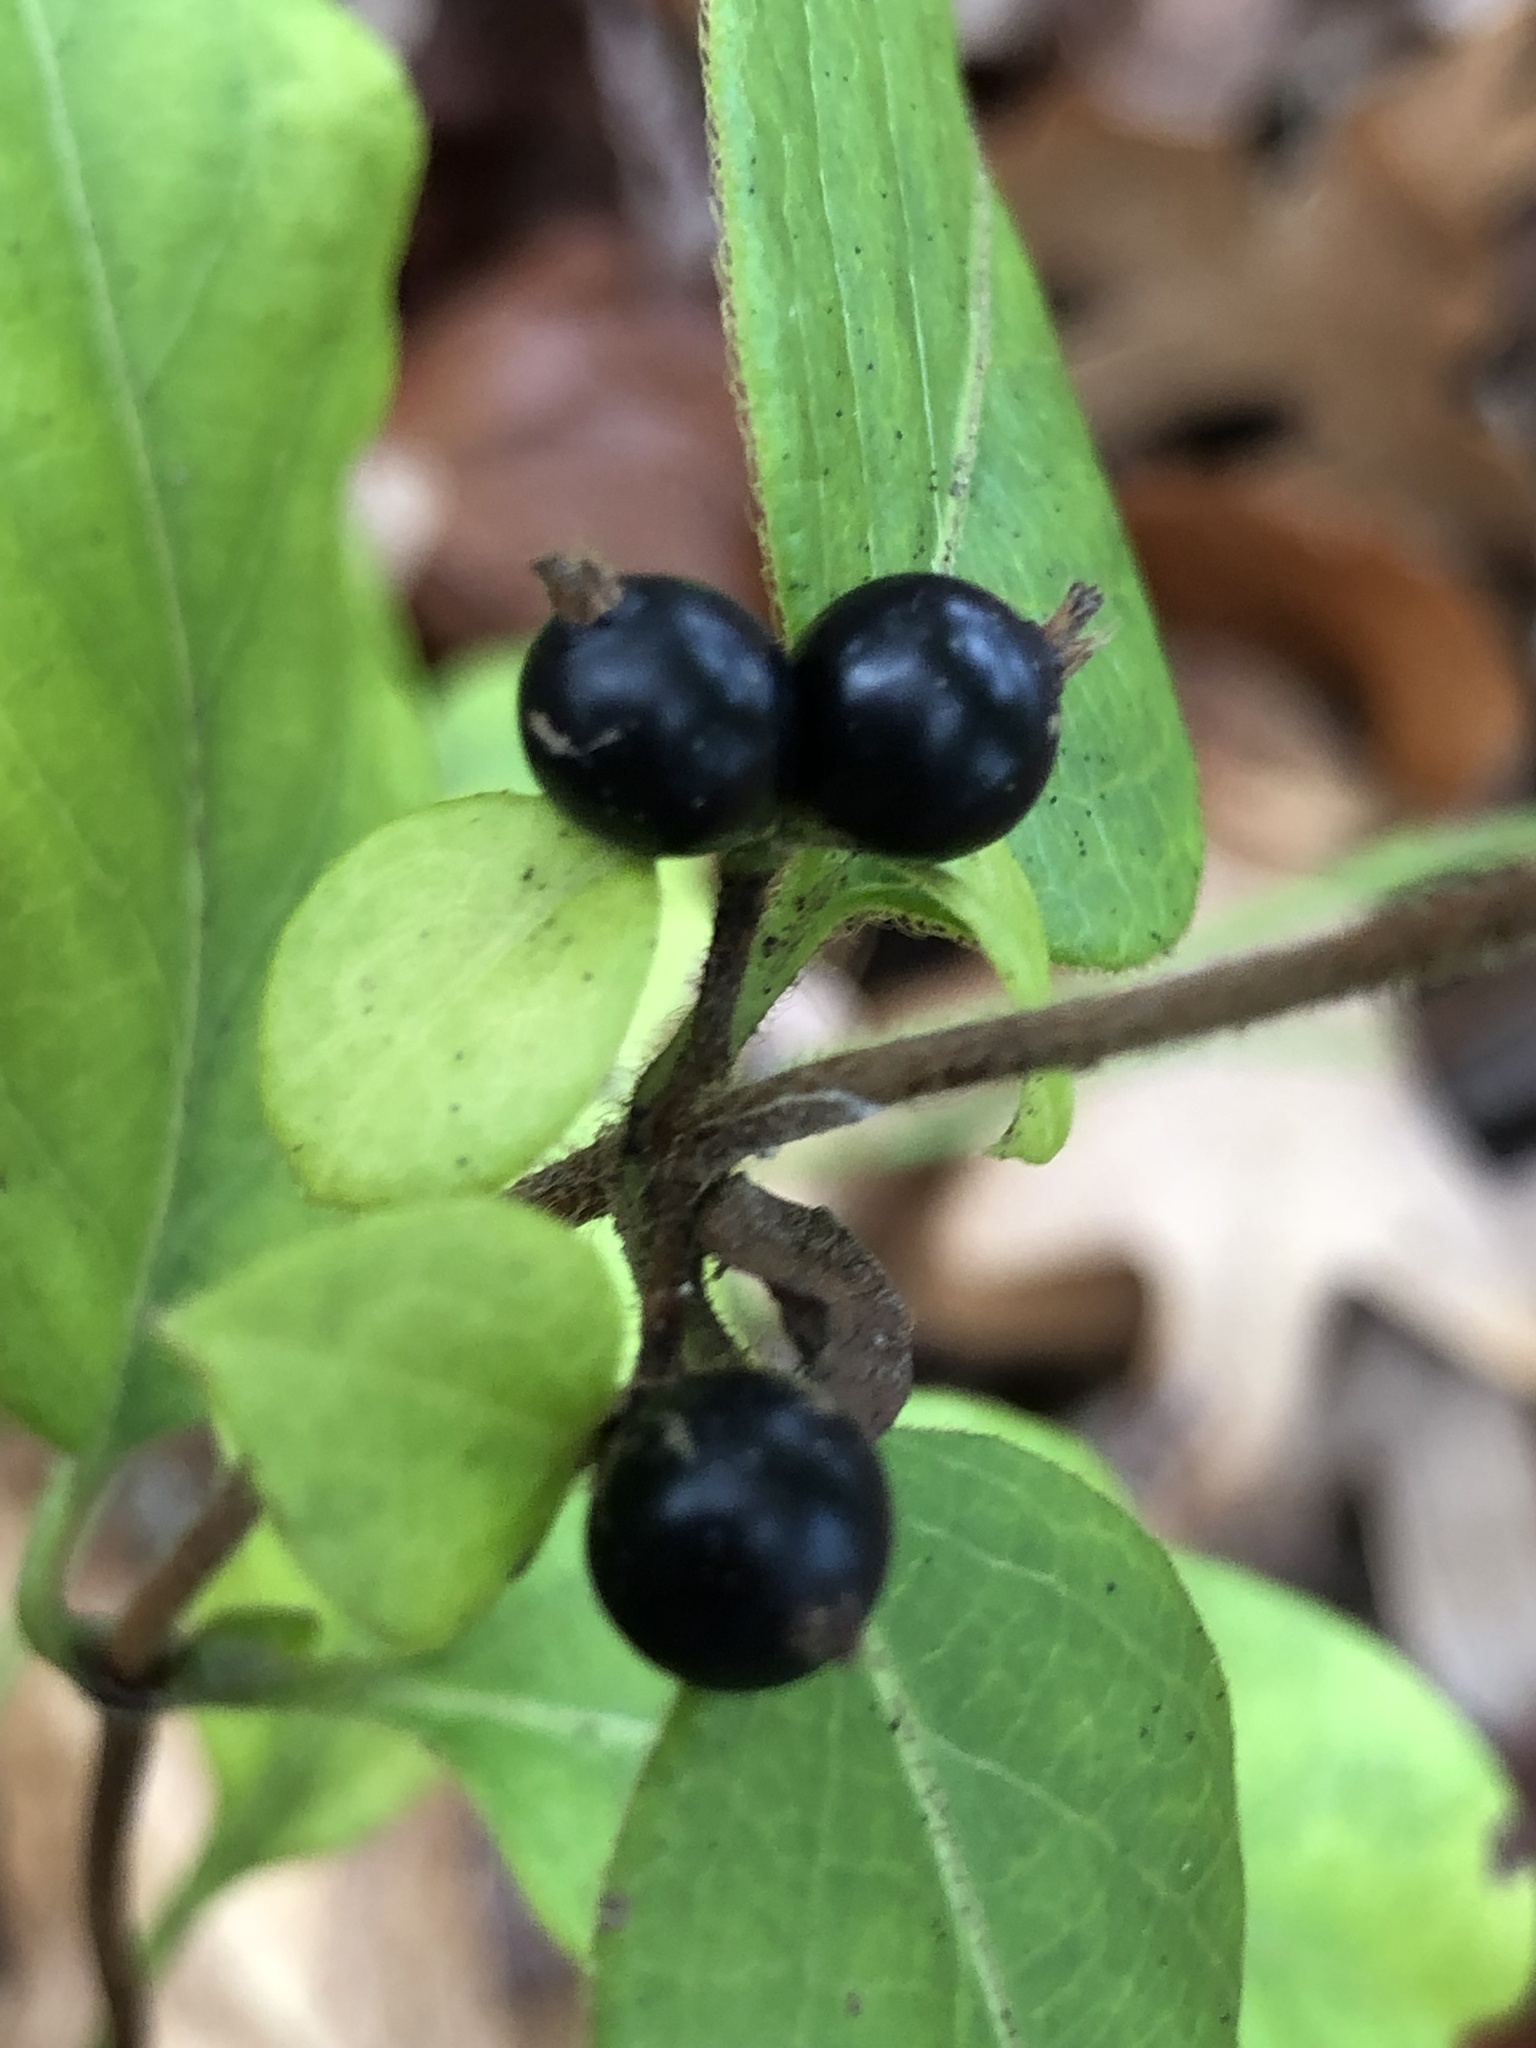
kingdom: Plantae
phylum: Tracheophyta
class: Magnoliopsida
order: Dipsacales
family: Caprifoliaceae
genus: Lonicera
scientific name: Lonicera japonica
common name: Japanese honeysuckle
